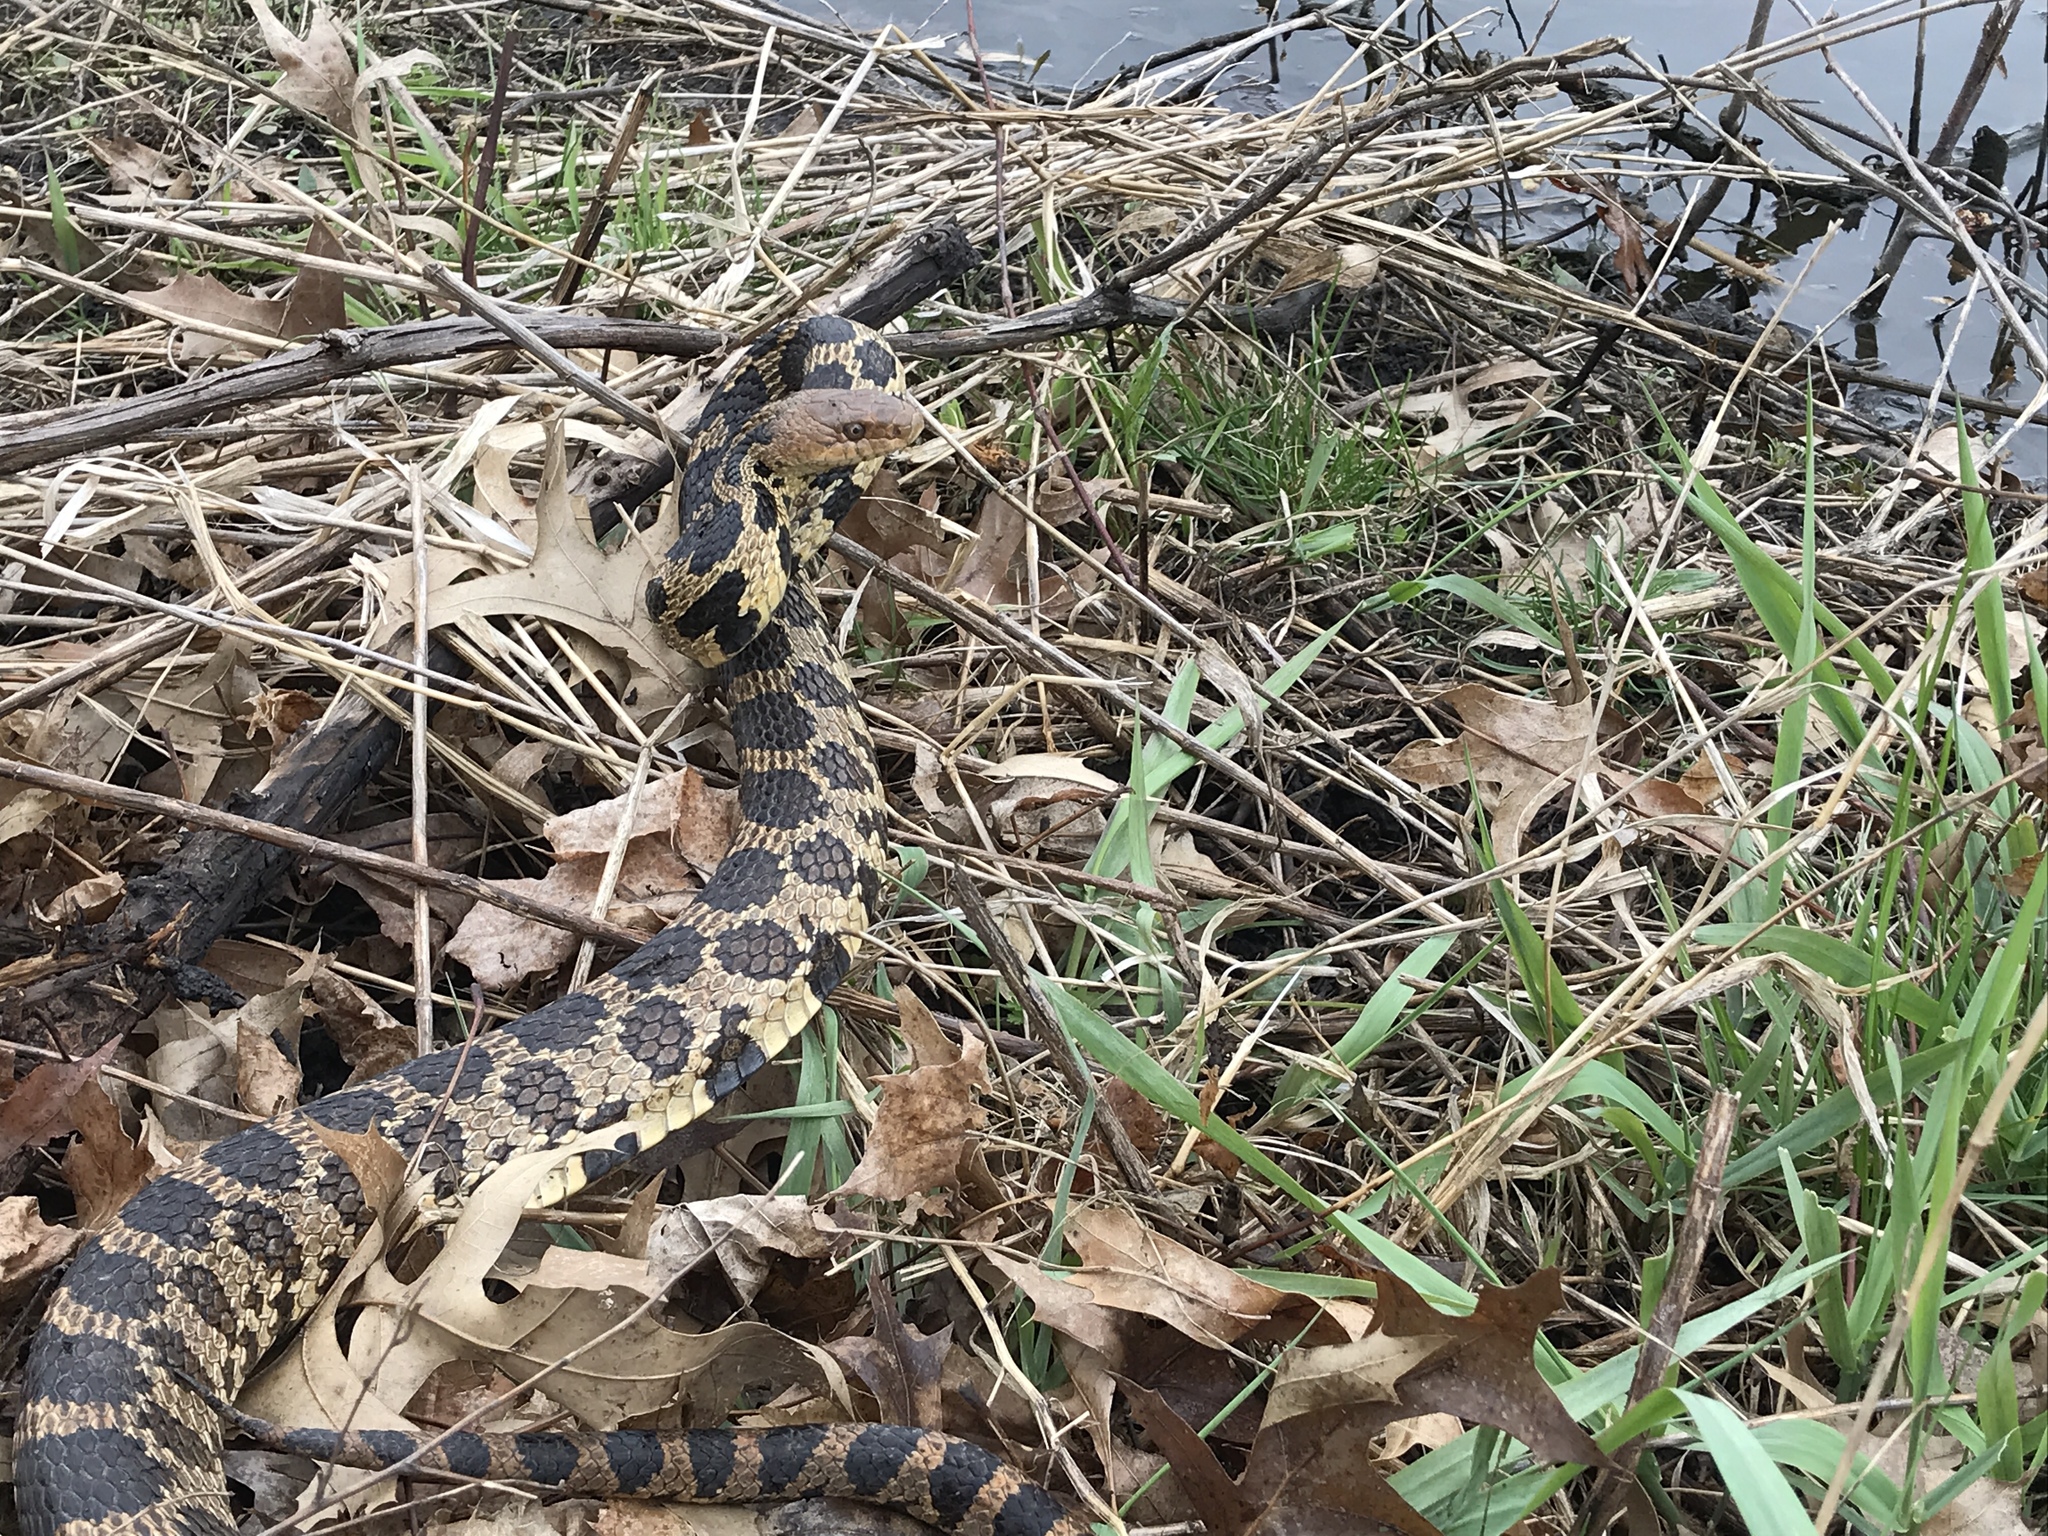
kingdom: Animalia
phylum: Chordata
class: Squamata
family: Colubridae
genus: Pantherophis
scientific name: Pantherophis vulpinus
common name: Eastern fox snake
